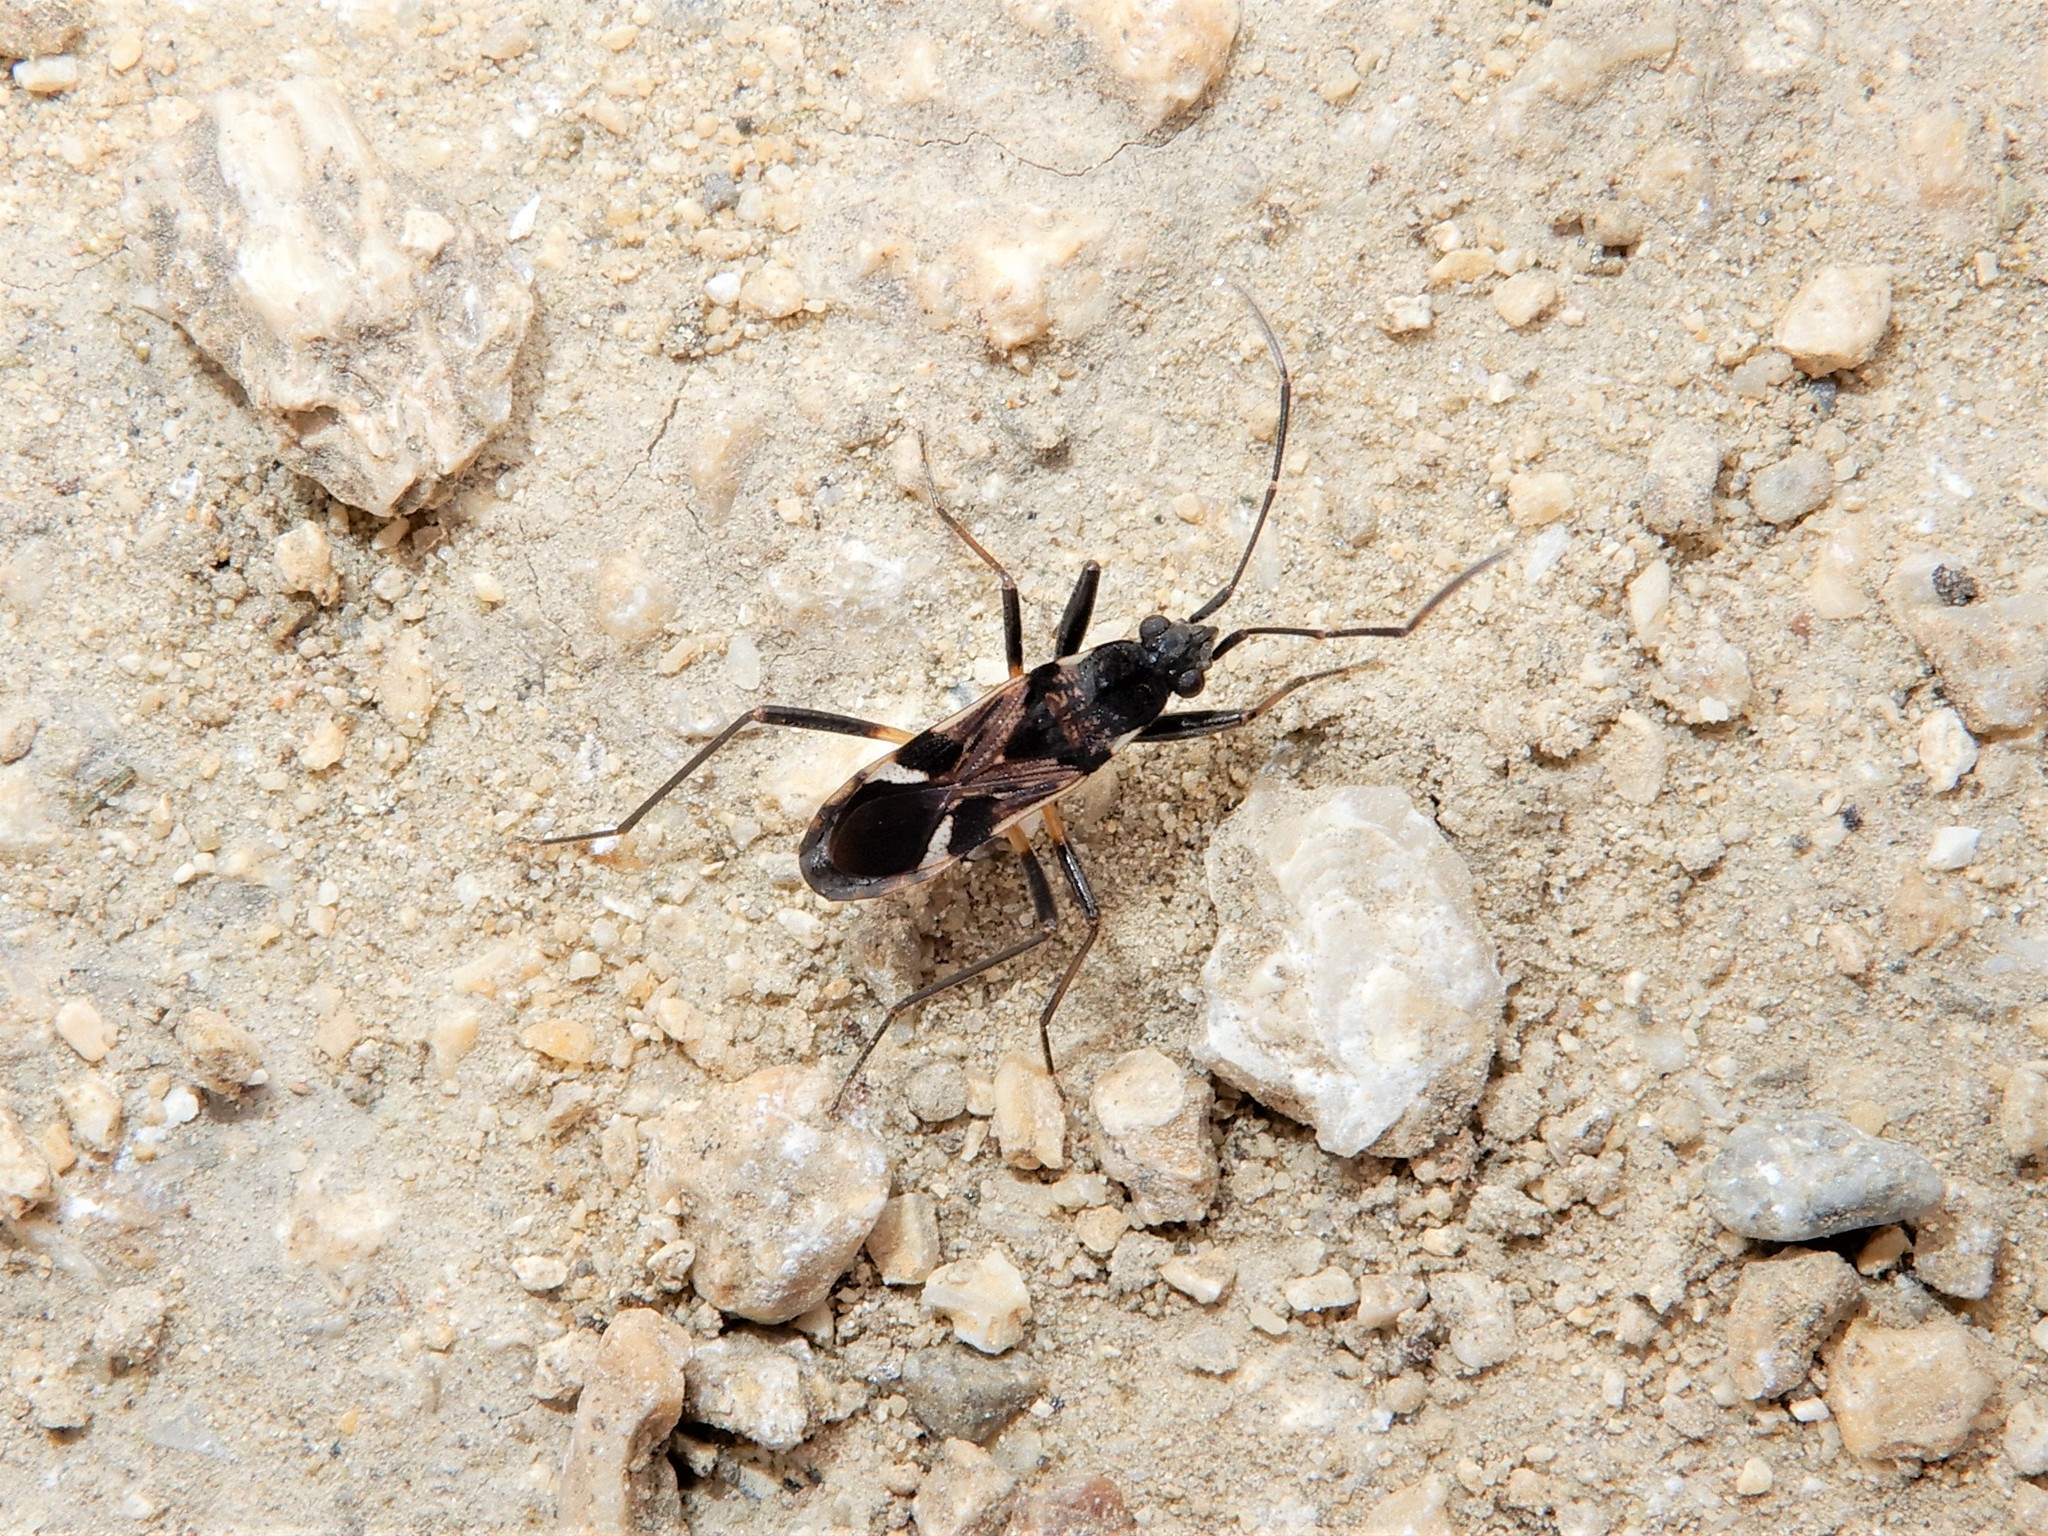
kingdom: Animalia
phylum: Arthropoda
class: Insecta
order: Hemiptera
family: Rhyparochromidae
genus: Dieuches
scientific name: Dieuches notatus
